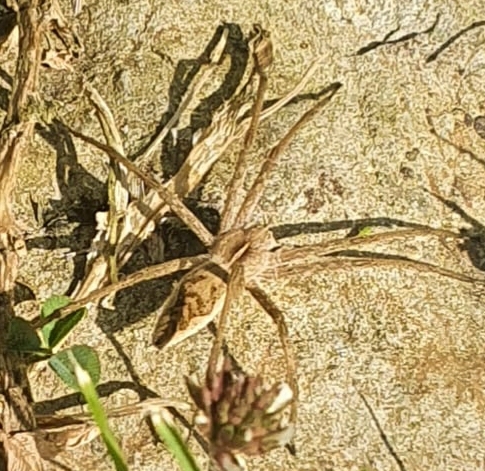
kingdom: Animalia
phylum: Arthropoda
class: Arachnida
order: Araneae
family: Pisauridae
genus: Pisaura
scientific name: Pisaura mirabilis
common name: Tent spider
